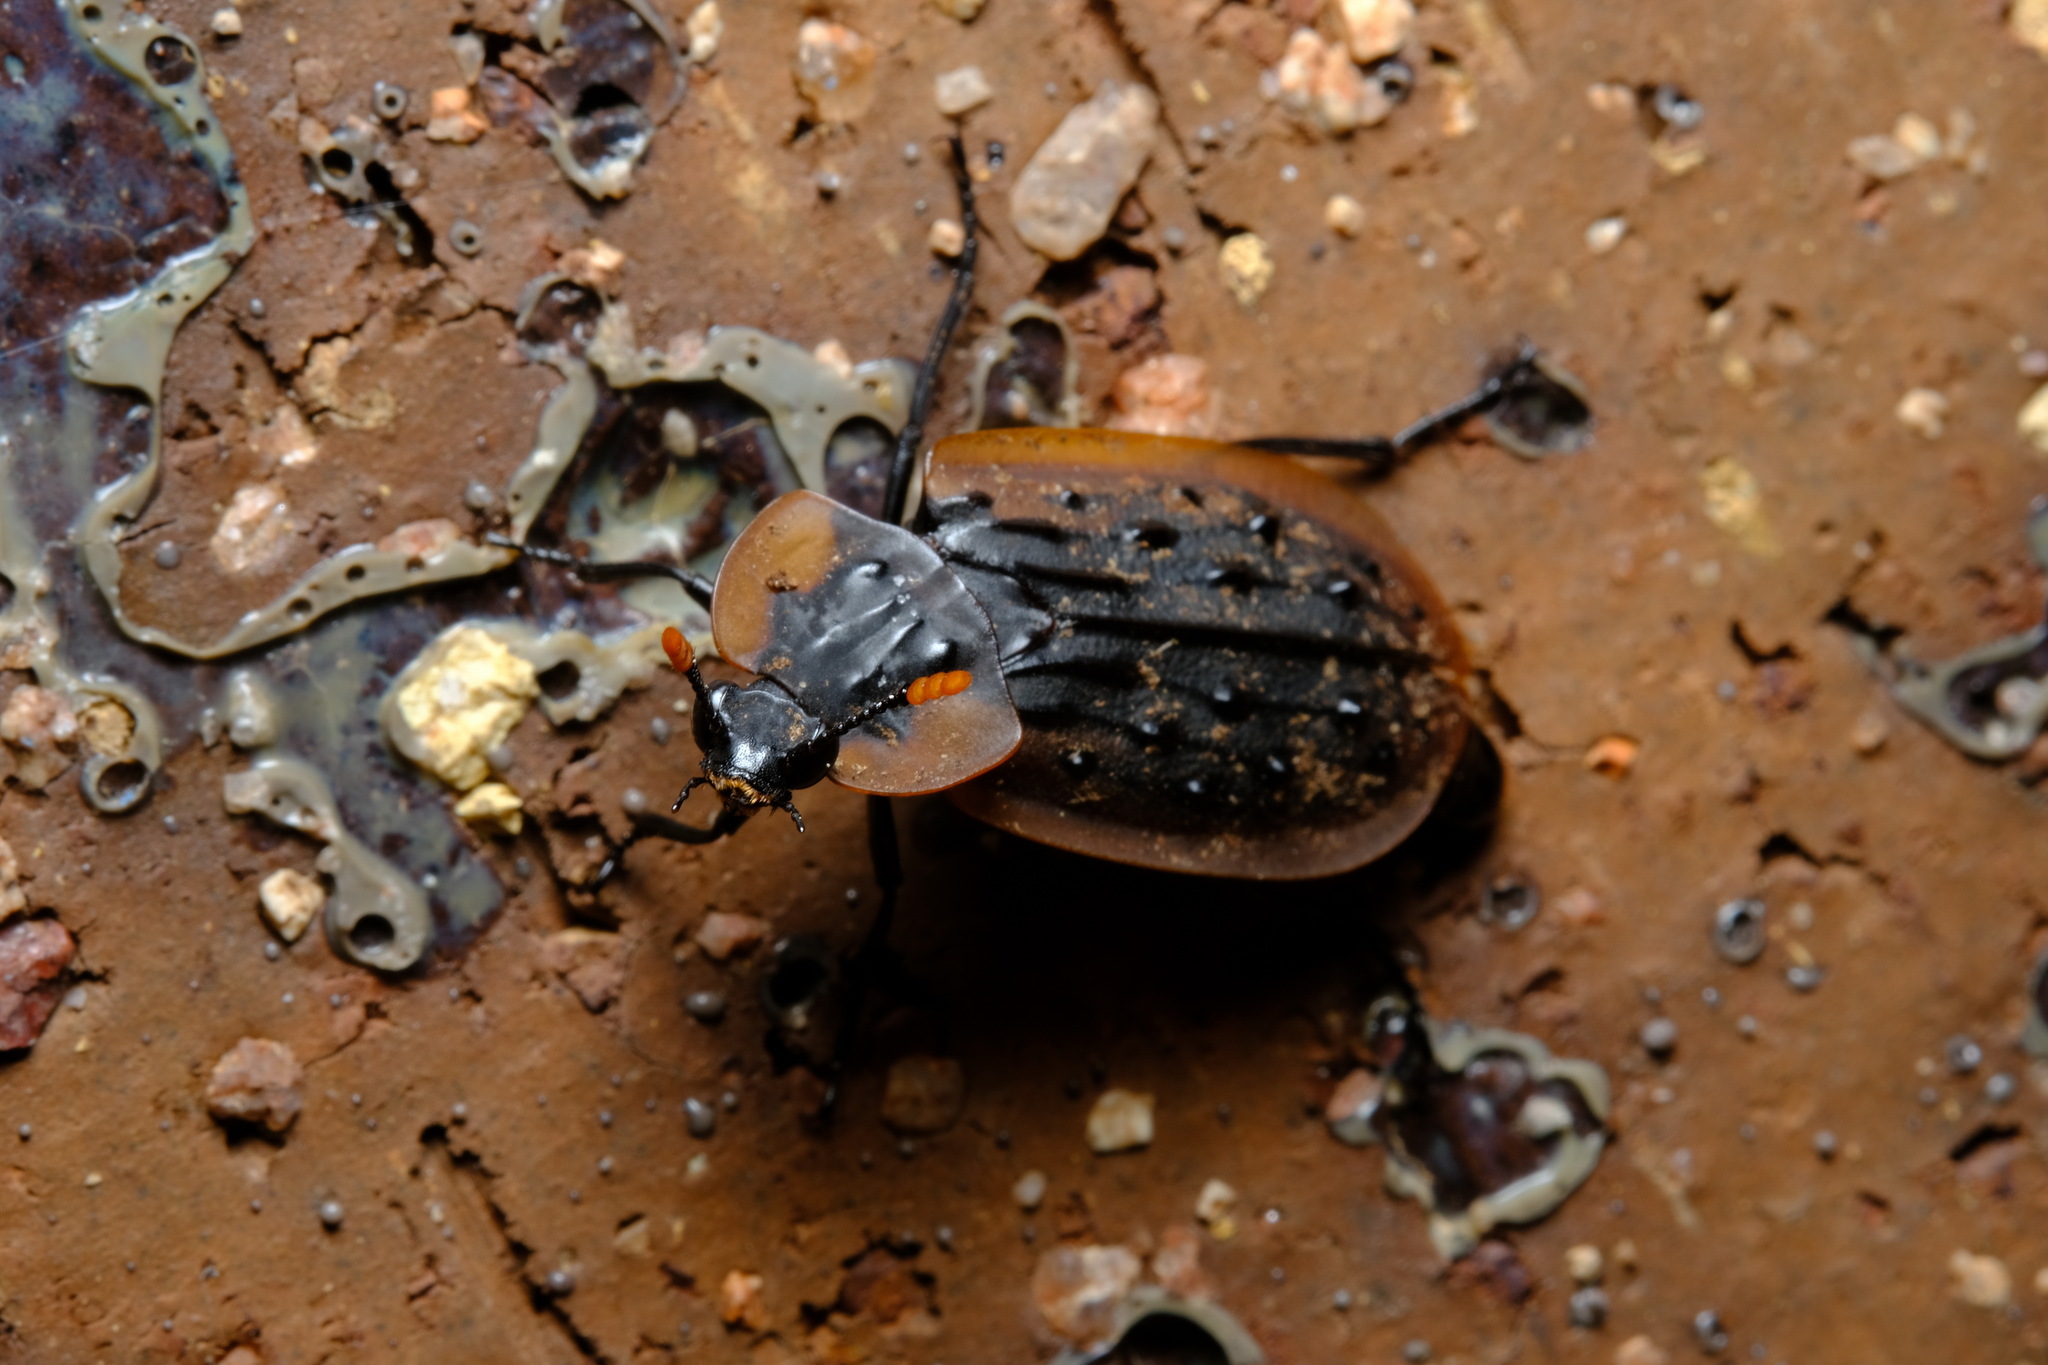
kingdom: Animalia
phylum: Arthropoda
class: Insecta
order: Coleoptera
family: Staphylinidae
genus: Ptomaphila
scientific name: Ptomaphila lacrymosa
